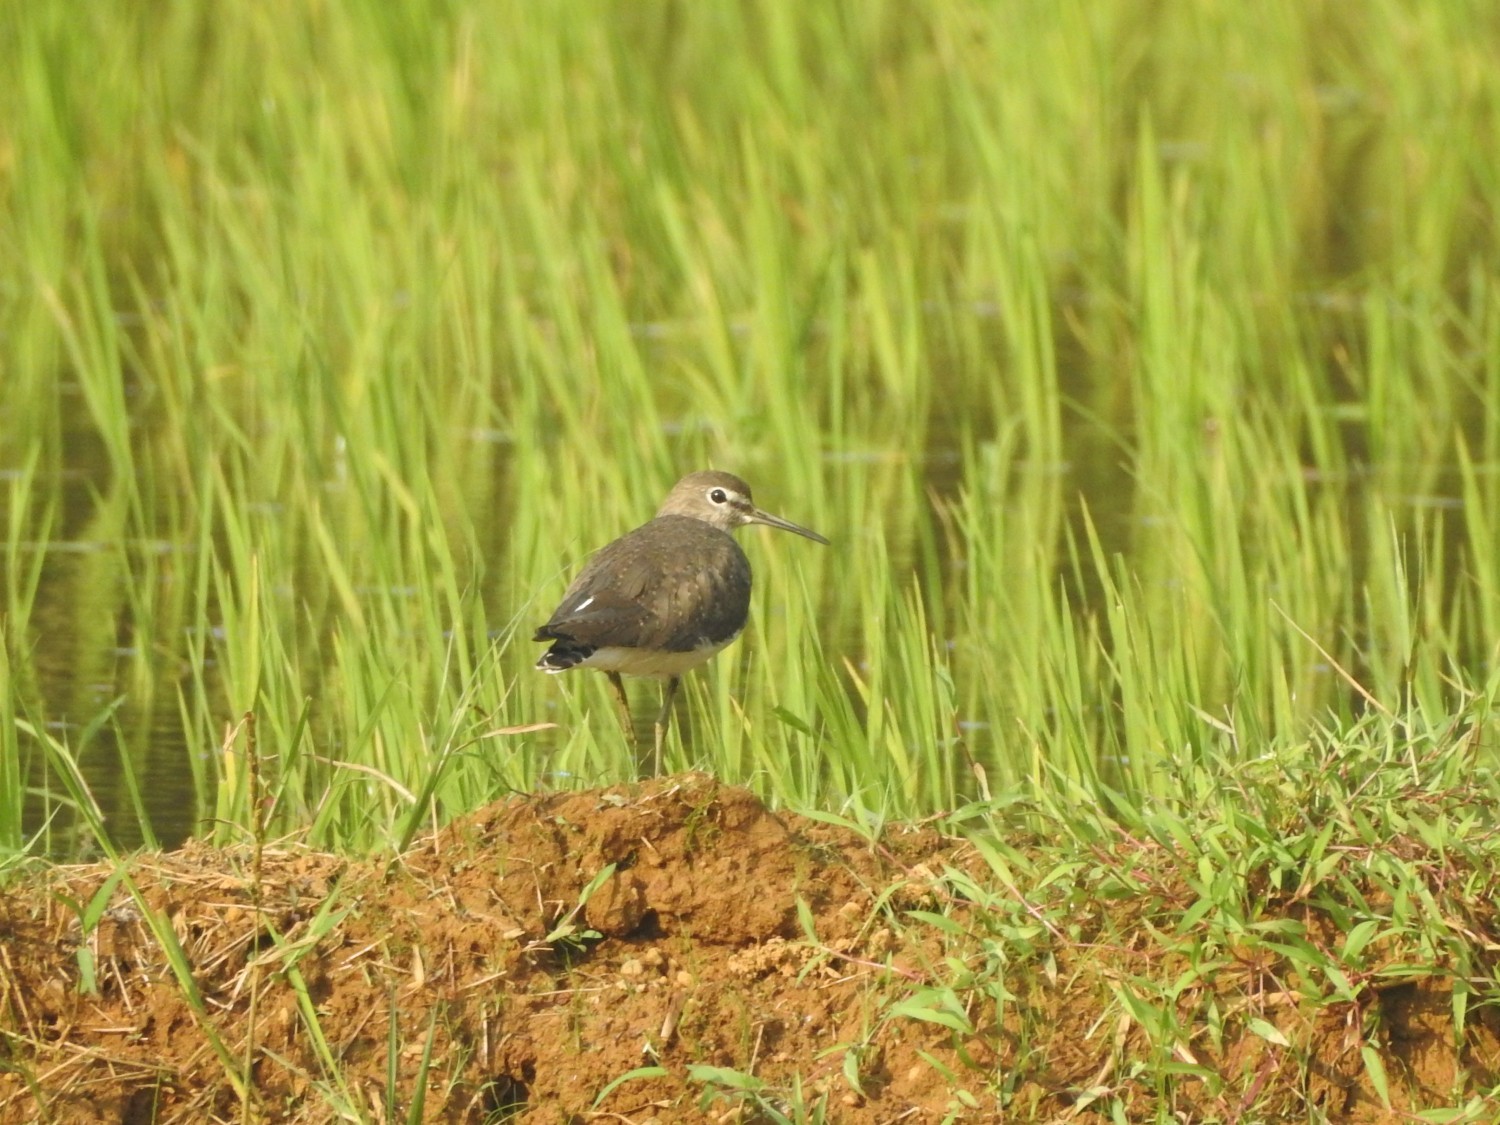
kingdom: Animalia
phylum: Chordata
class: Aves
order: Charadriiformes
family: Scolopacidae
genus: Tringa
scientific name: Tringa ochropus
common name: Green sandpiper
